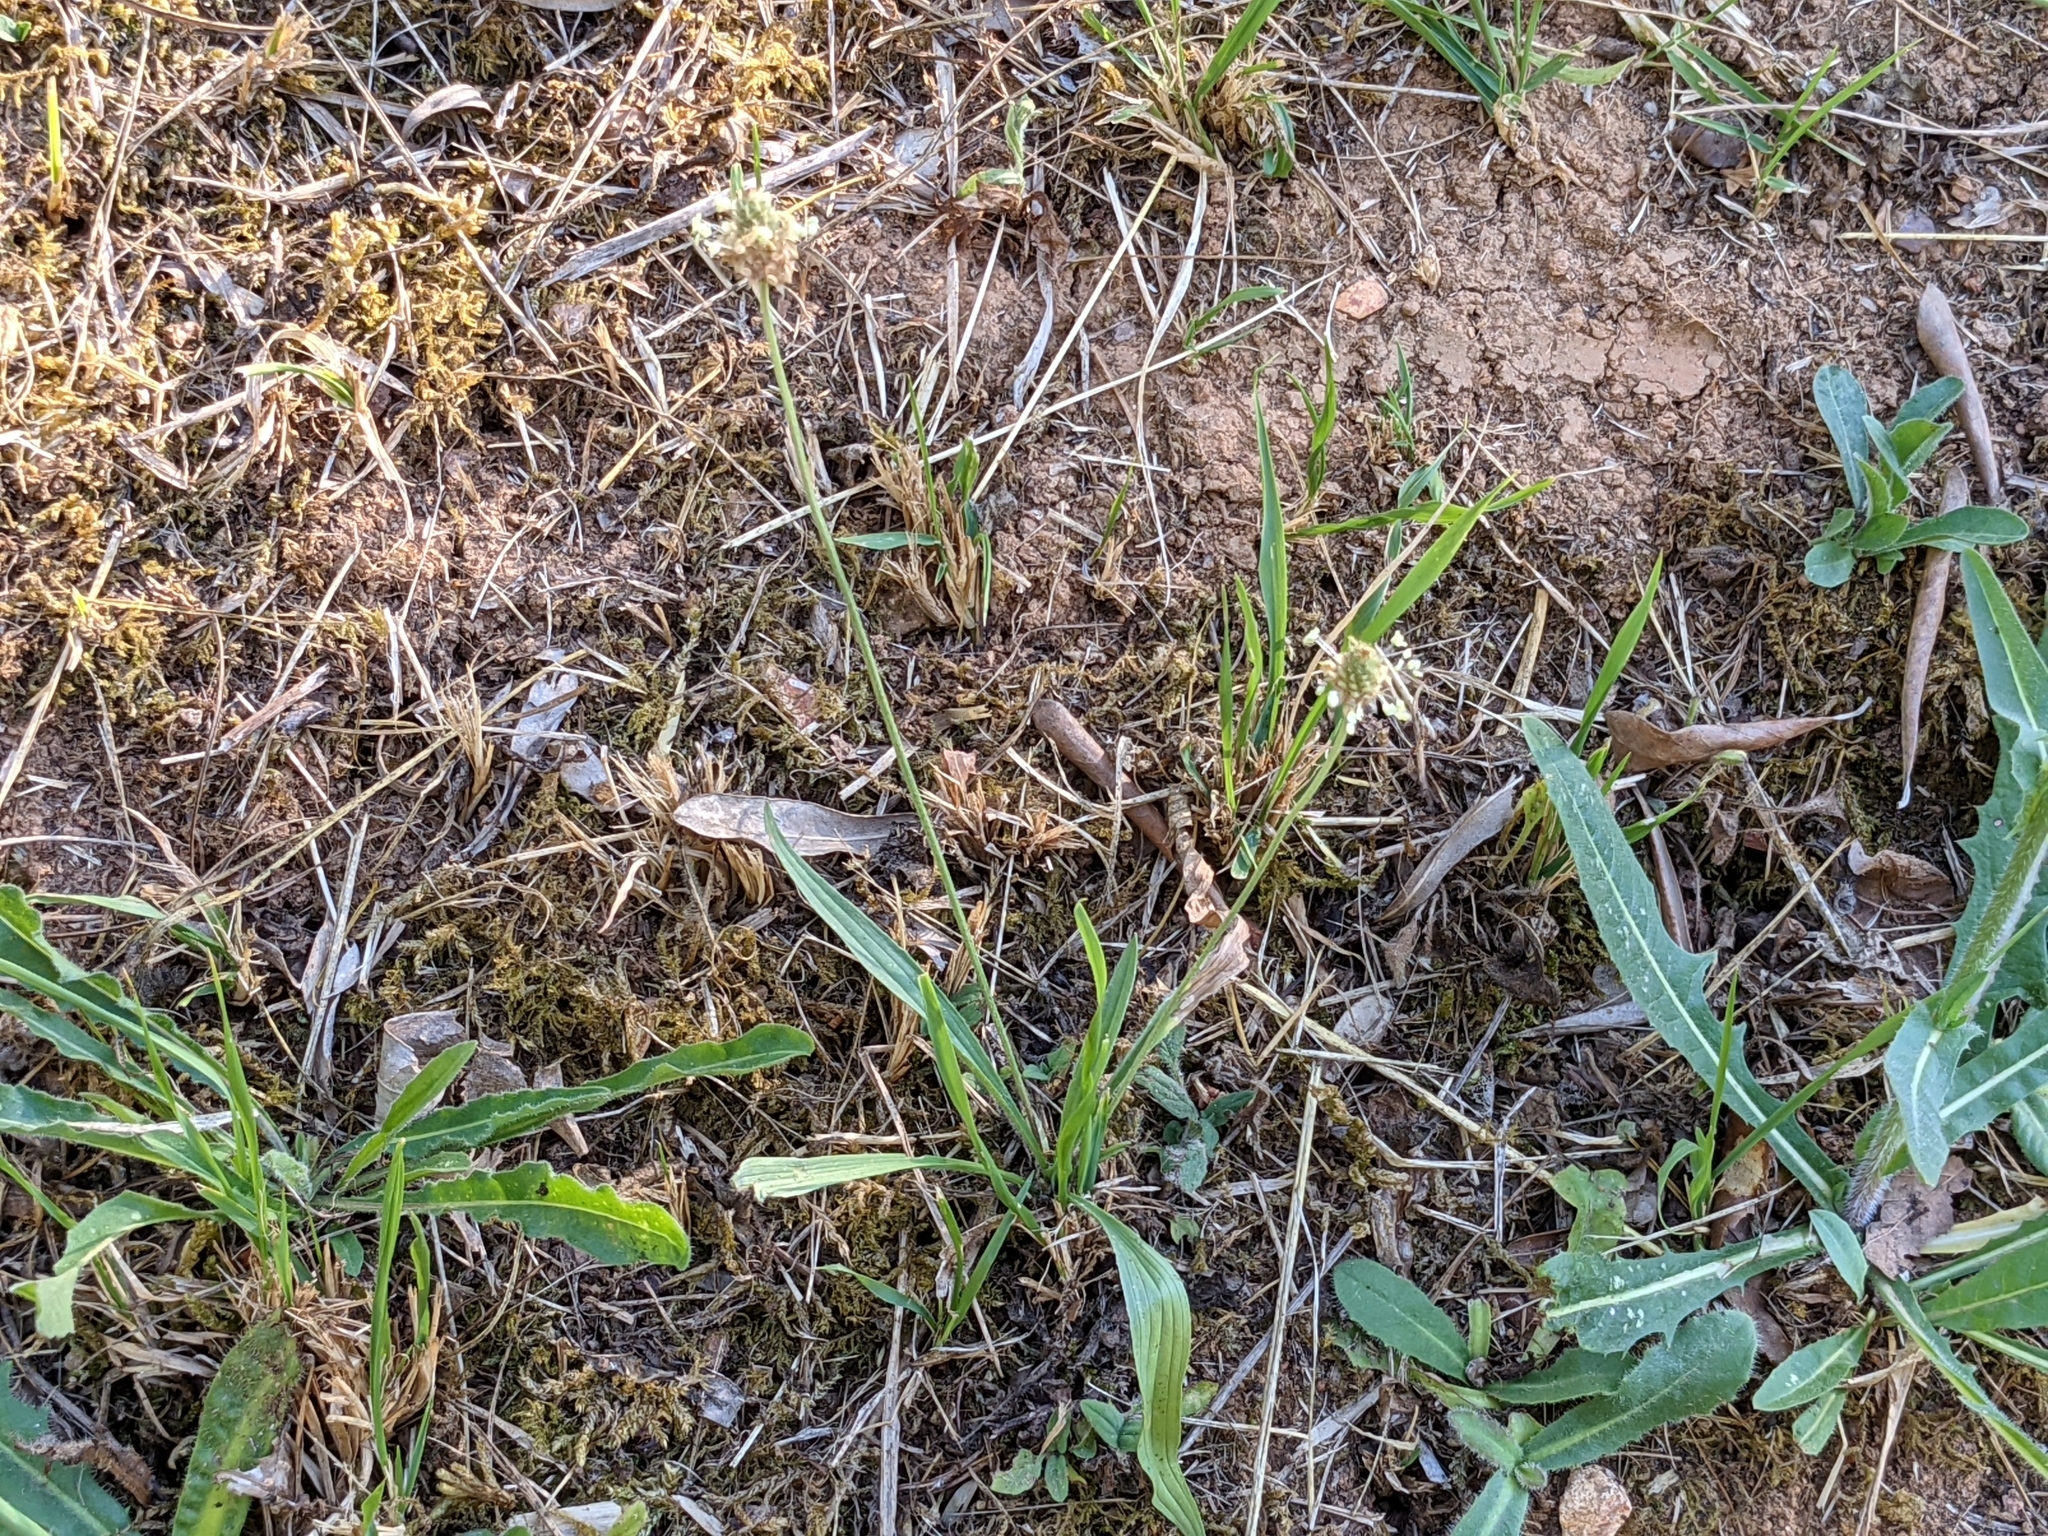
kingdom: Plantae
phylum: Tracheophyta
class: Magnoliopsida
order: Lamiales
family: Plantaginaceae
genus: Plantago
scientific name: Plantago lanceolata
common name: Ribwort plantain
